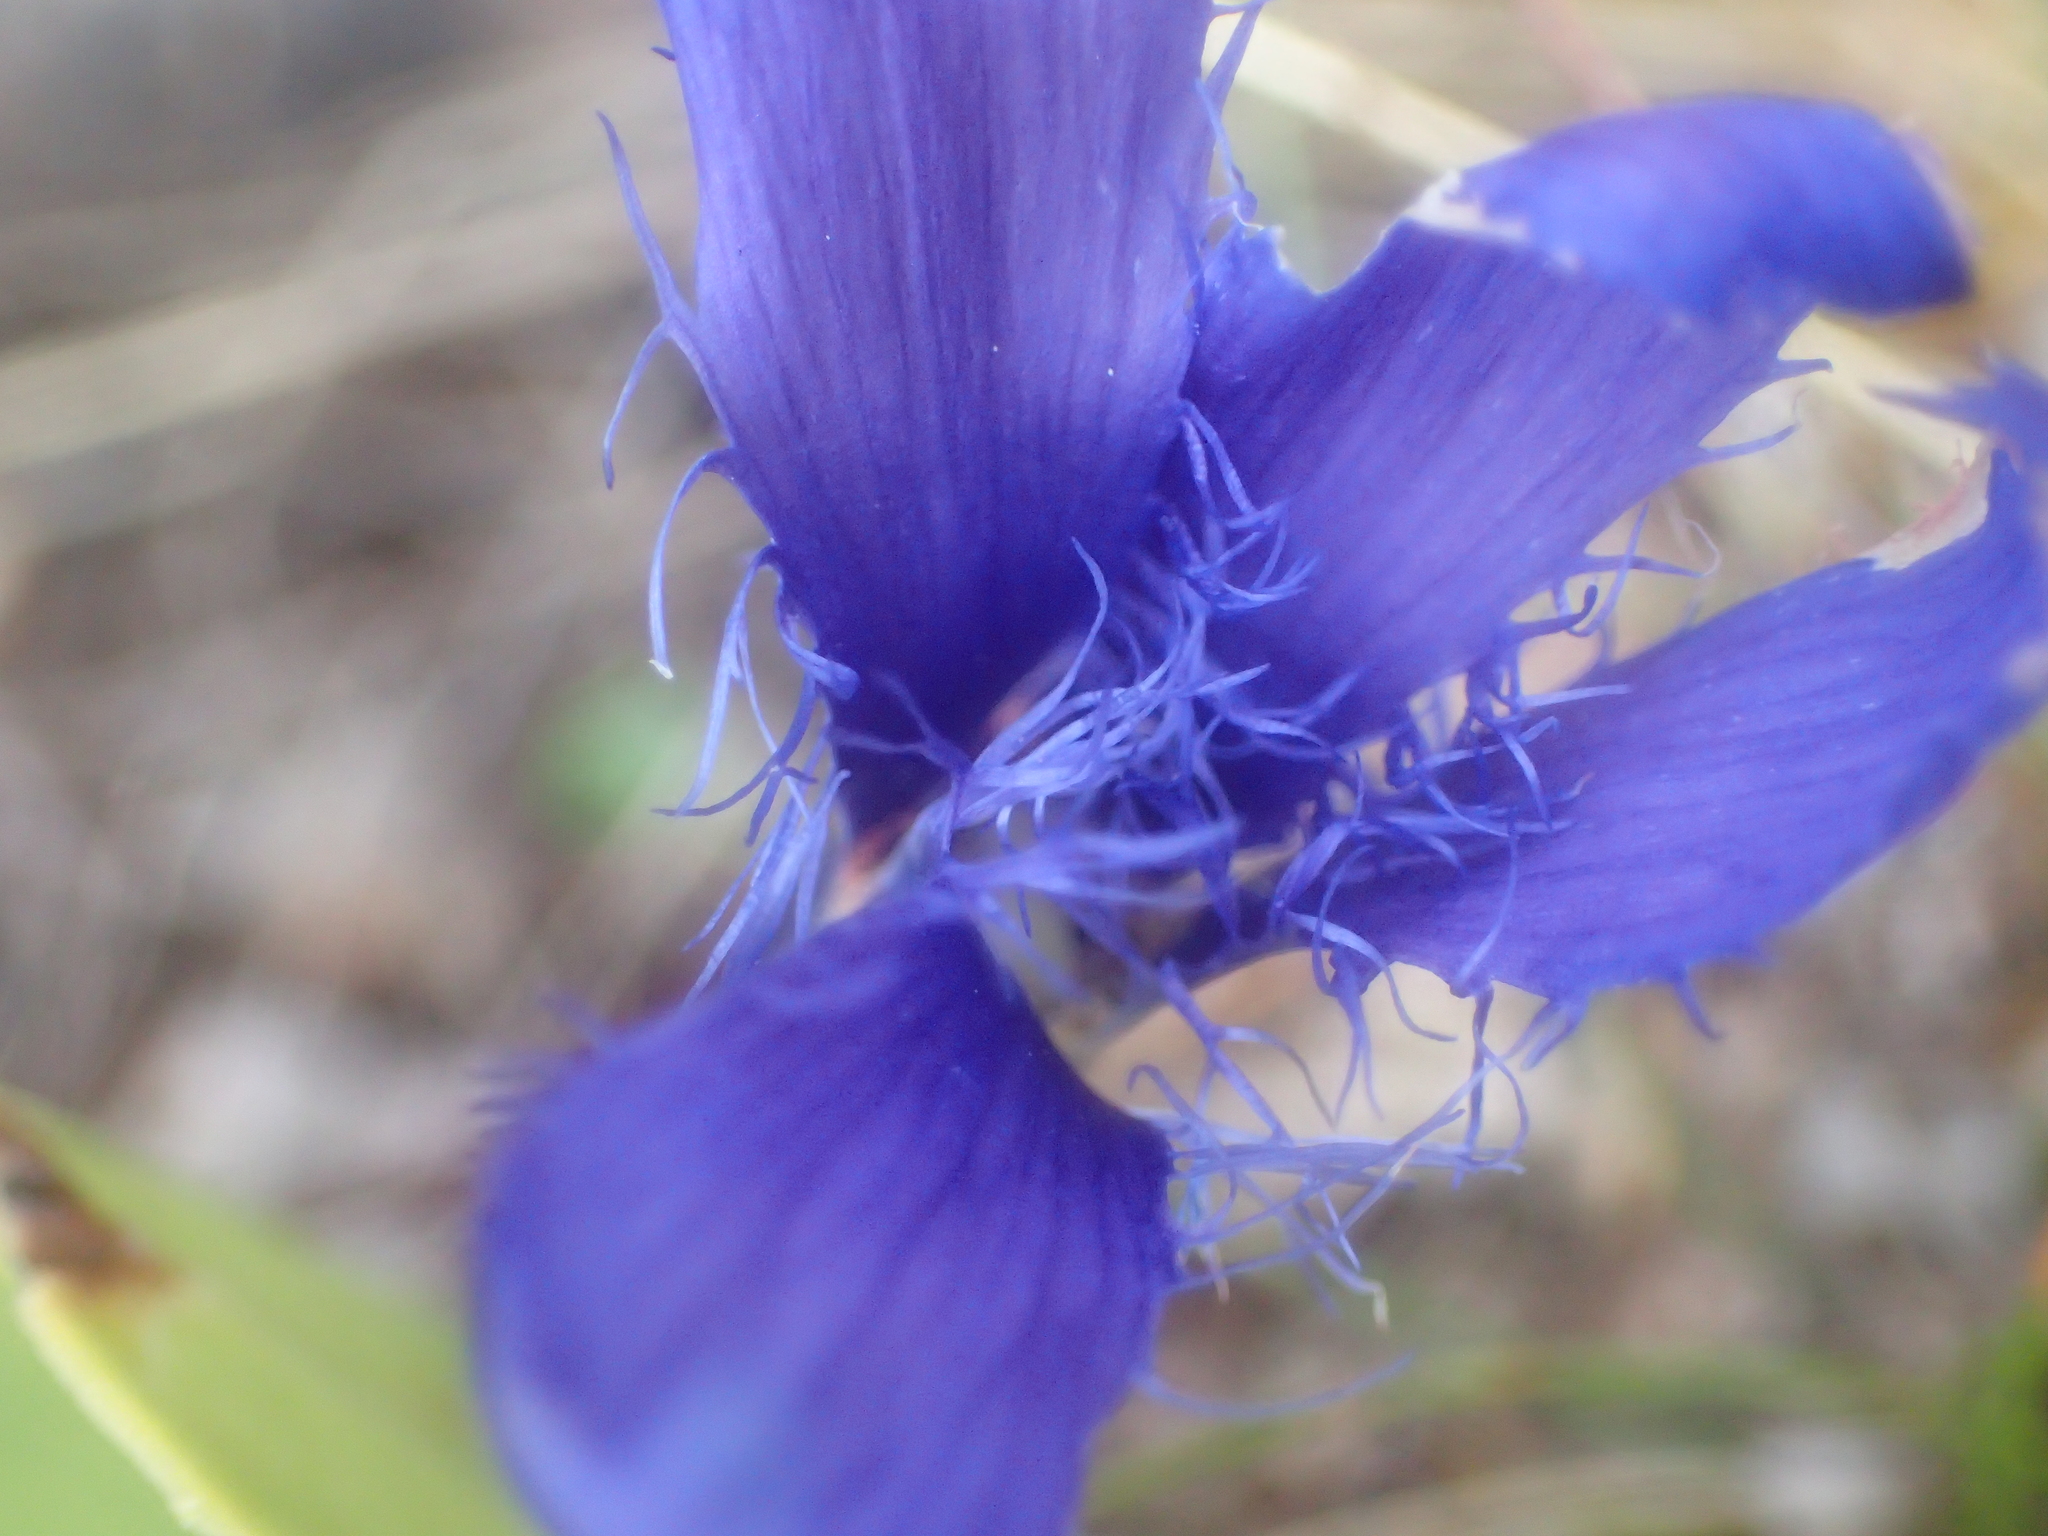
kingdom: Plantae
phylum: Tracheophyta
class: Magnoliopsida
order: Gentianales
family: Gentianaceae
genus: Gentianopsis
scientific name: Gentianopsis ciliata
